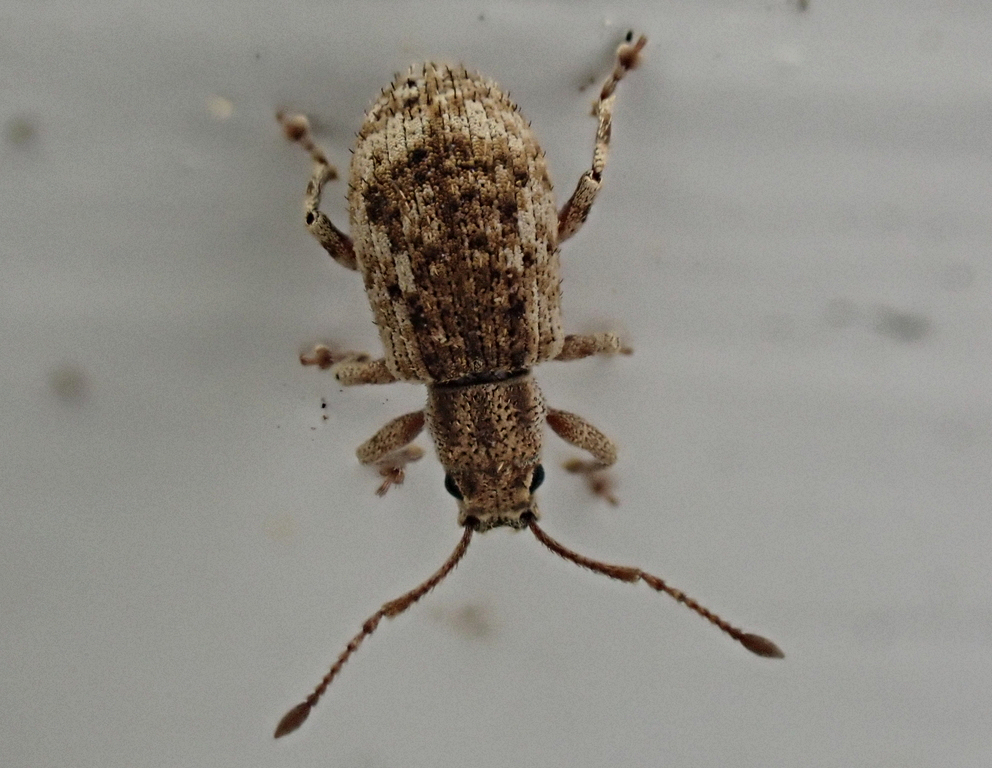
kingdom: Animalia
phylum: Arthropoda
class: Insecta
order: Coleoptera
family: Curculionidae
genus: Pseudoedophrys
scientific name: Pseudoedophrys hilleri
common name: Weevil
